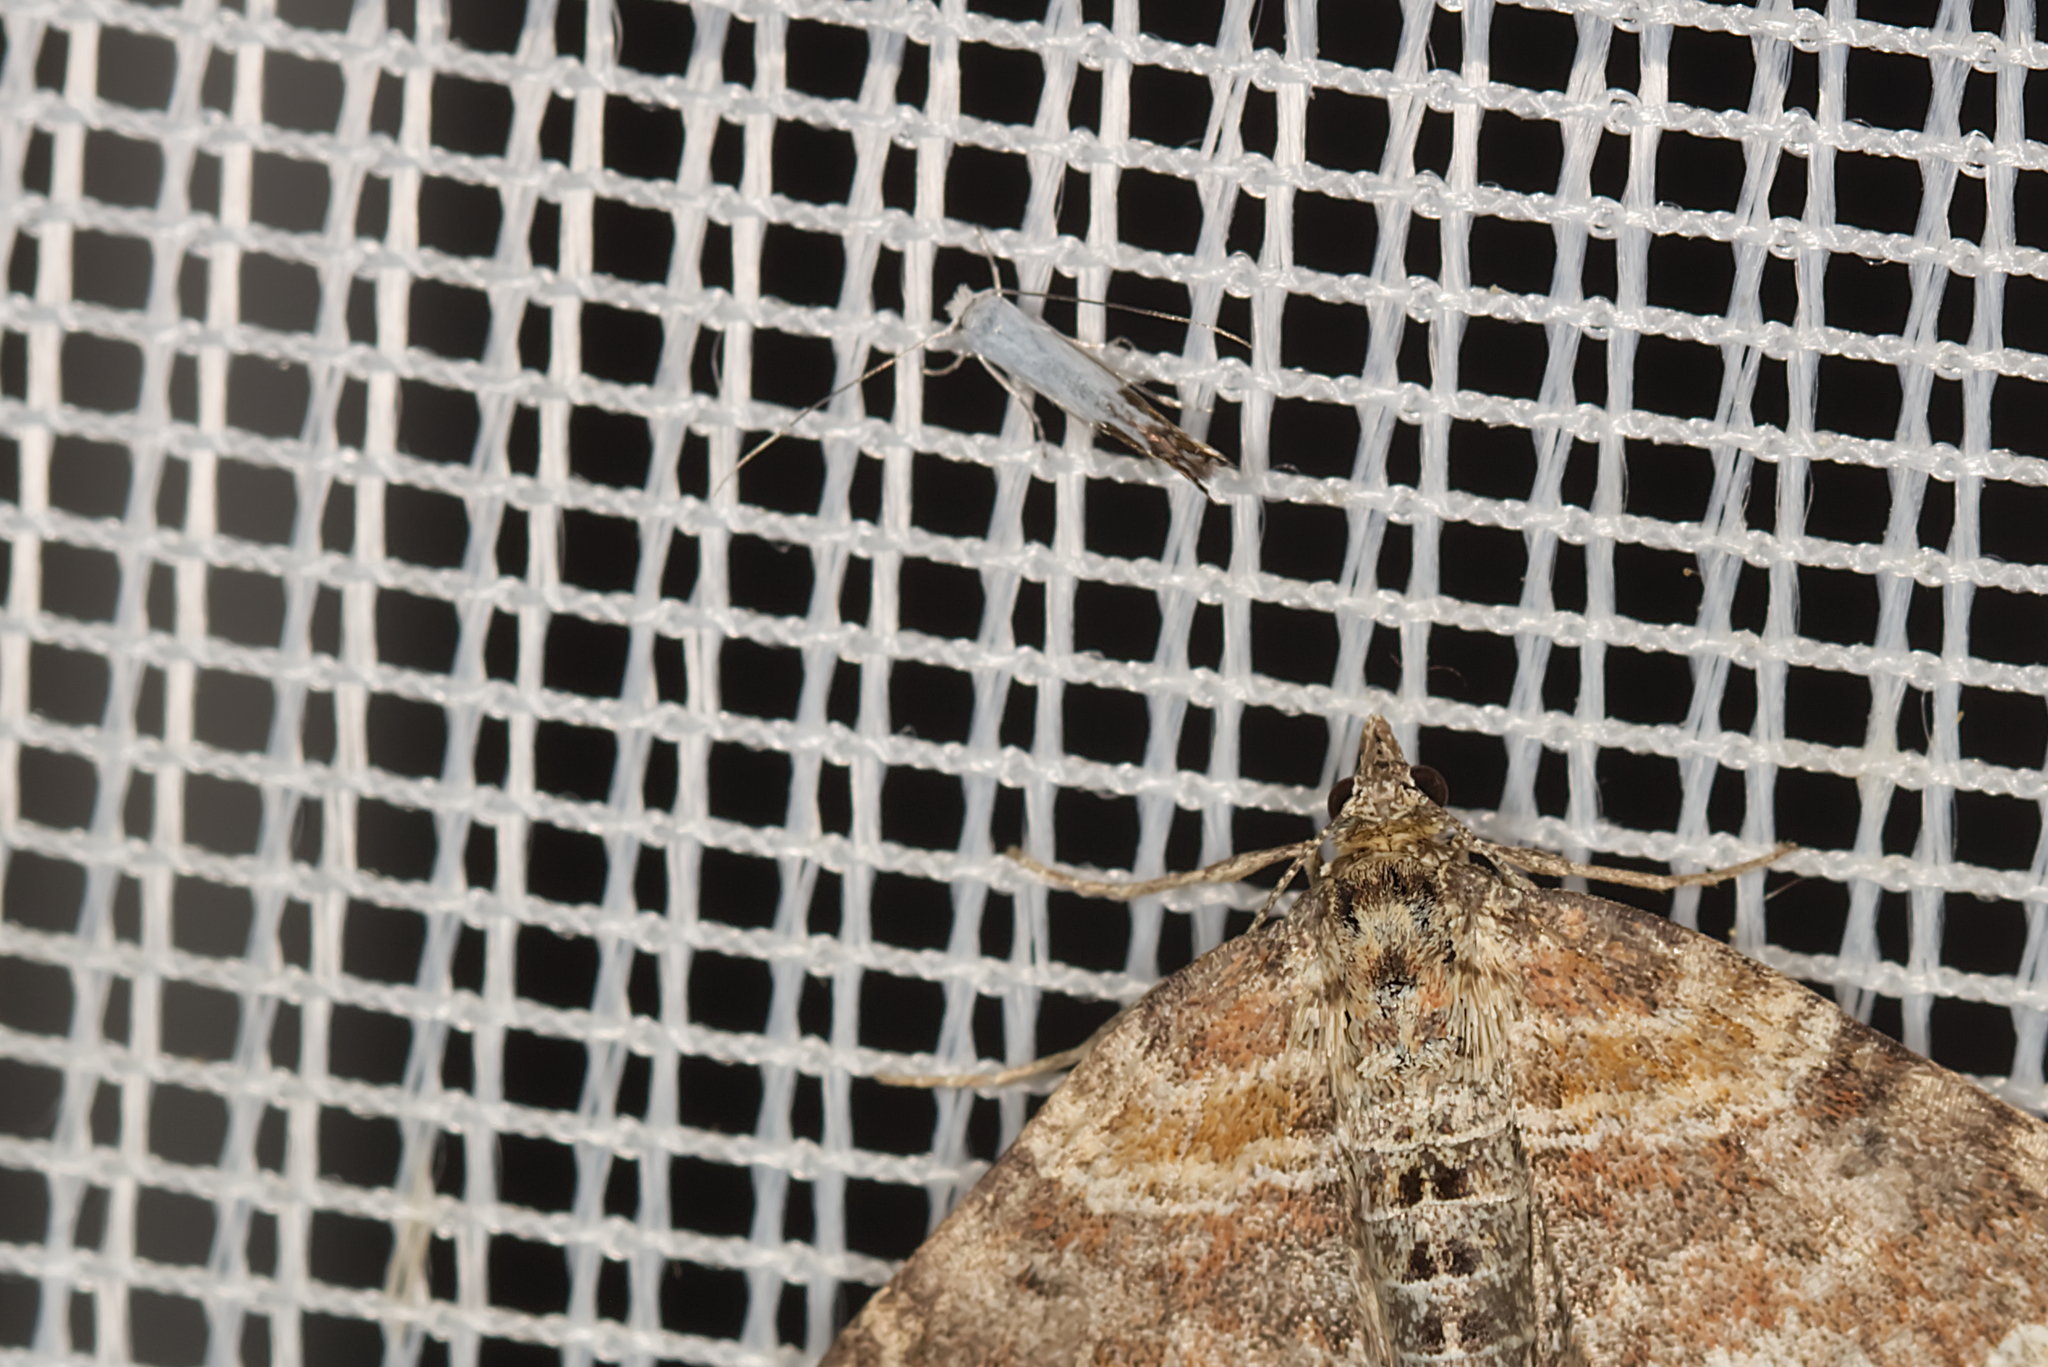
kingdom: Animalia
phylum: Arthropoda
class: Insecta
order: Lepidoptera
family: Lyonetiidae
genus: Lyonetia
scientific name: Lyonetia clerkella
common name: Apple leaf miner
